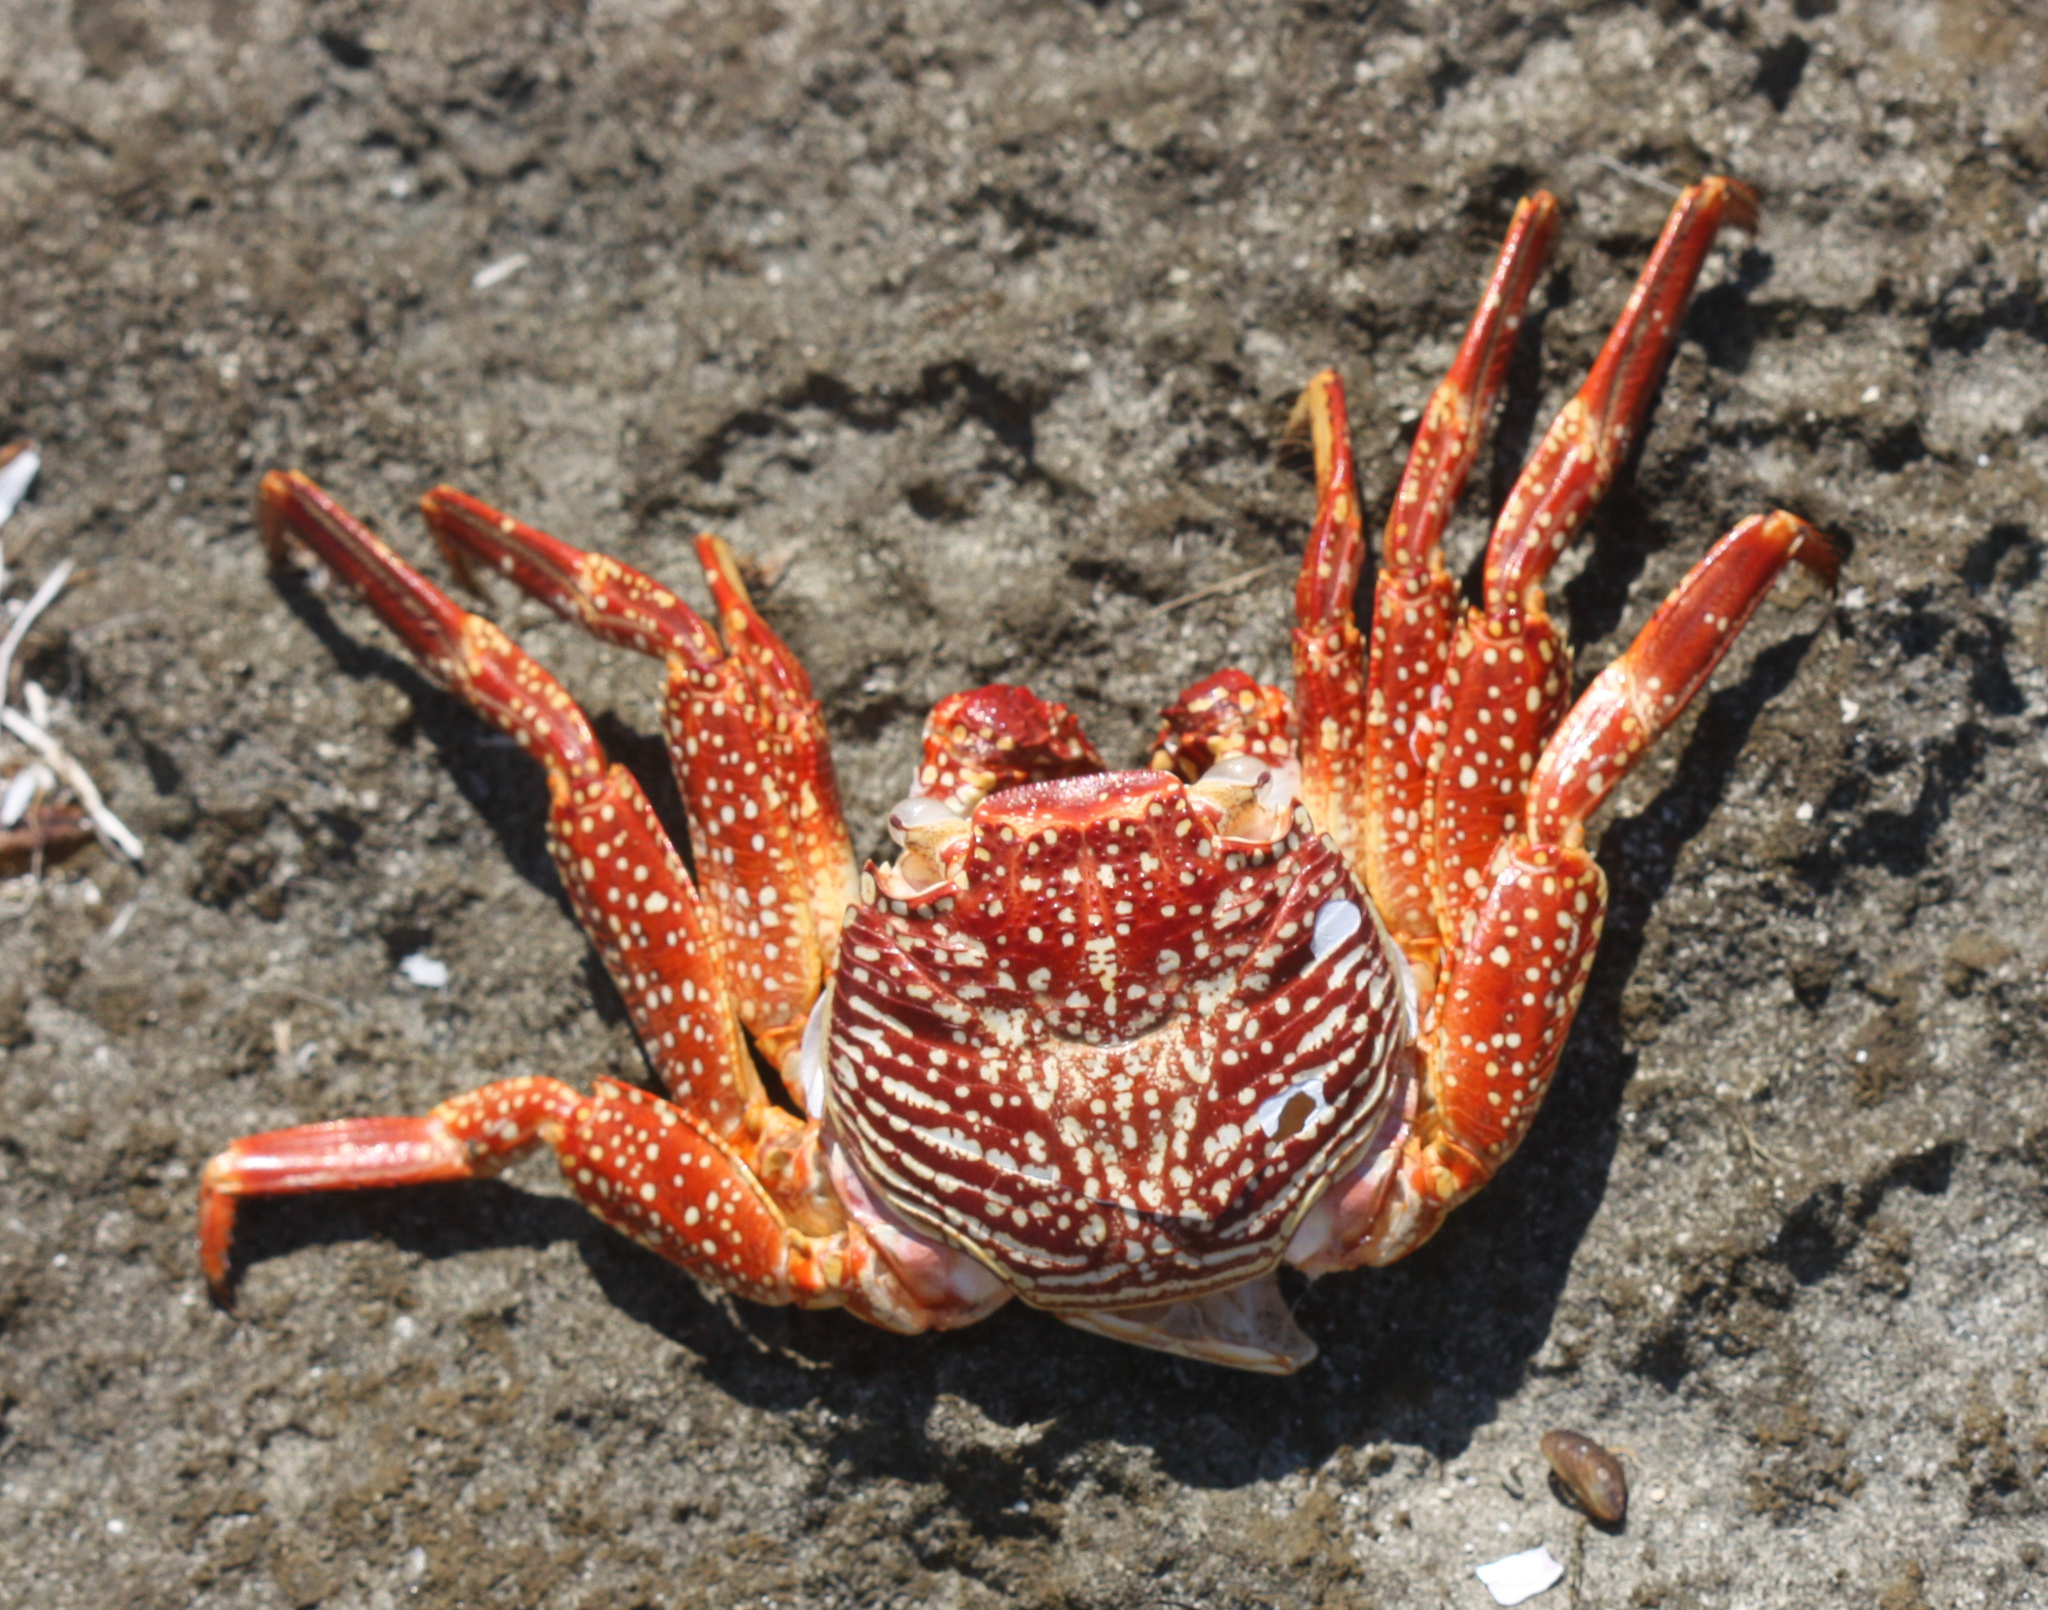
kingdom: Animalia
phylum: Arthropoda
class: Malacostraca
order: Decapoda
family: Grapsidae
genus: Grapsus
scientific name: Grapsus grapsus
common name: Sally lightfoot
